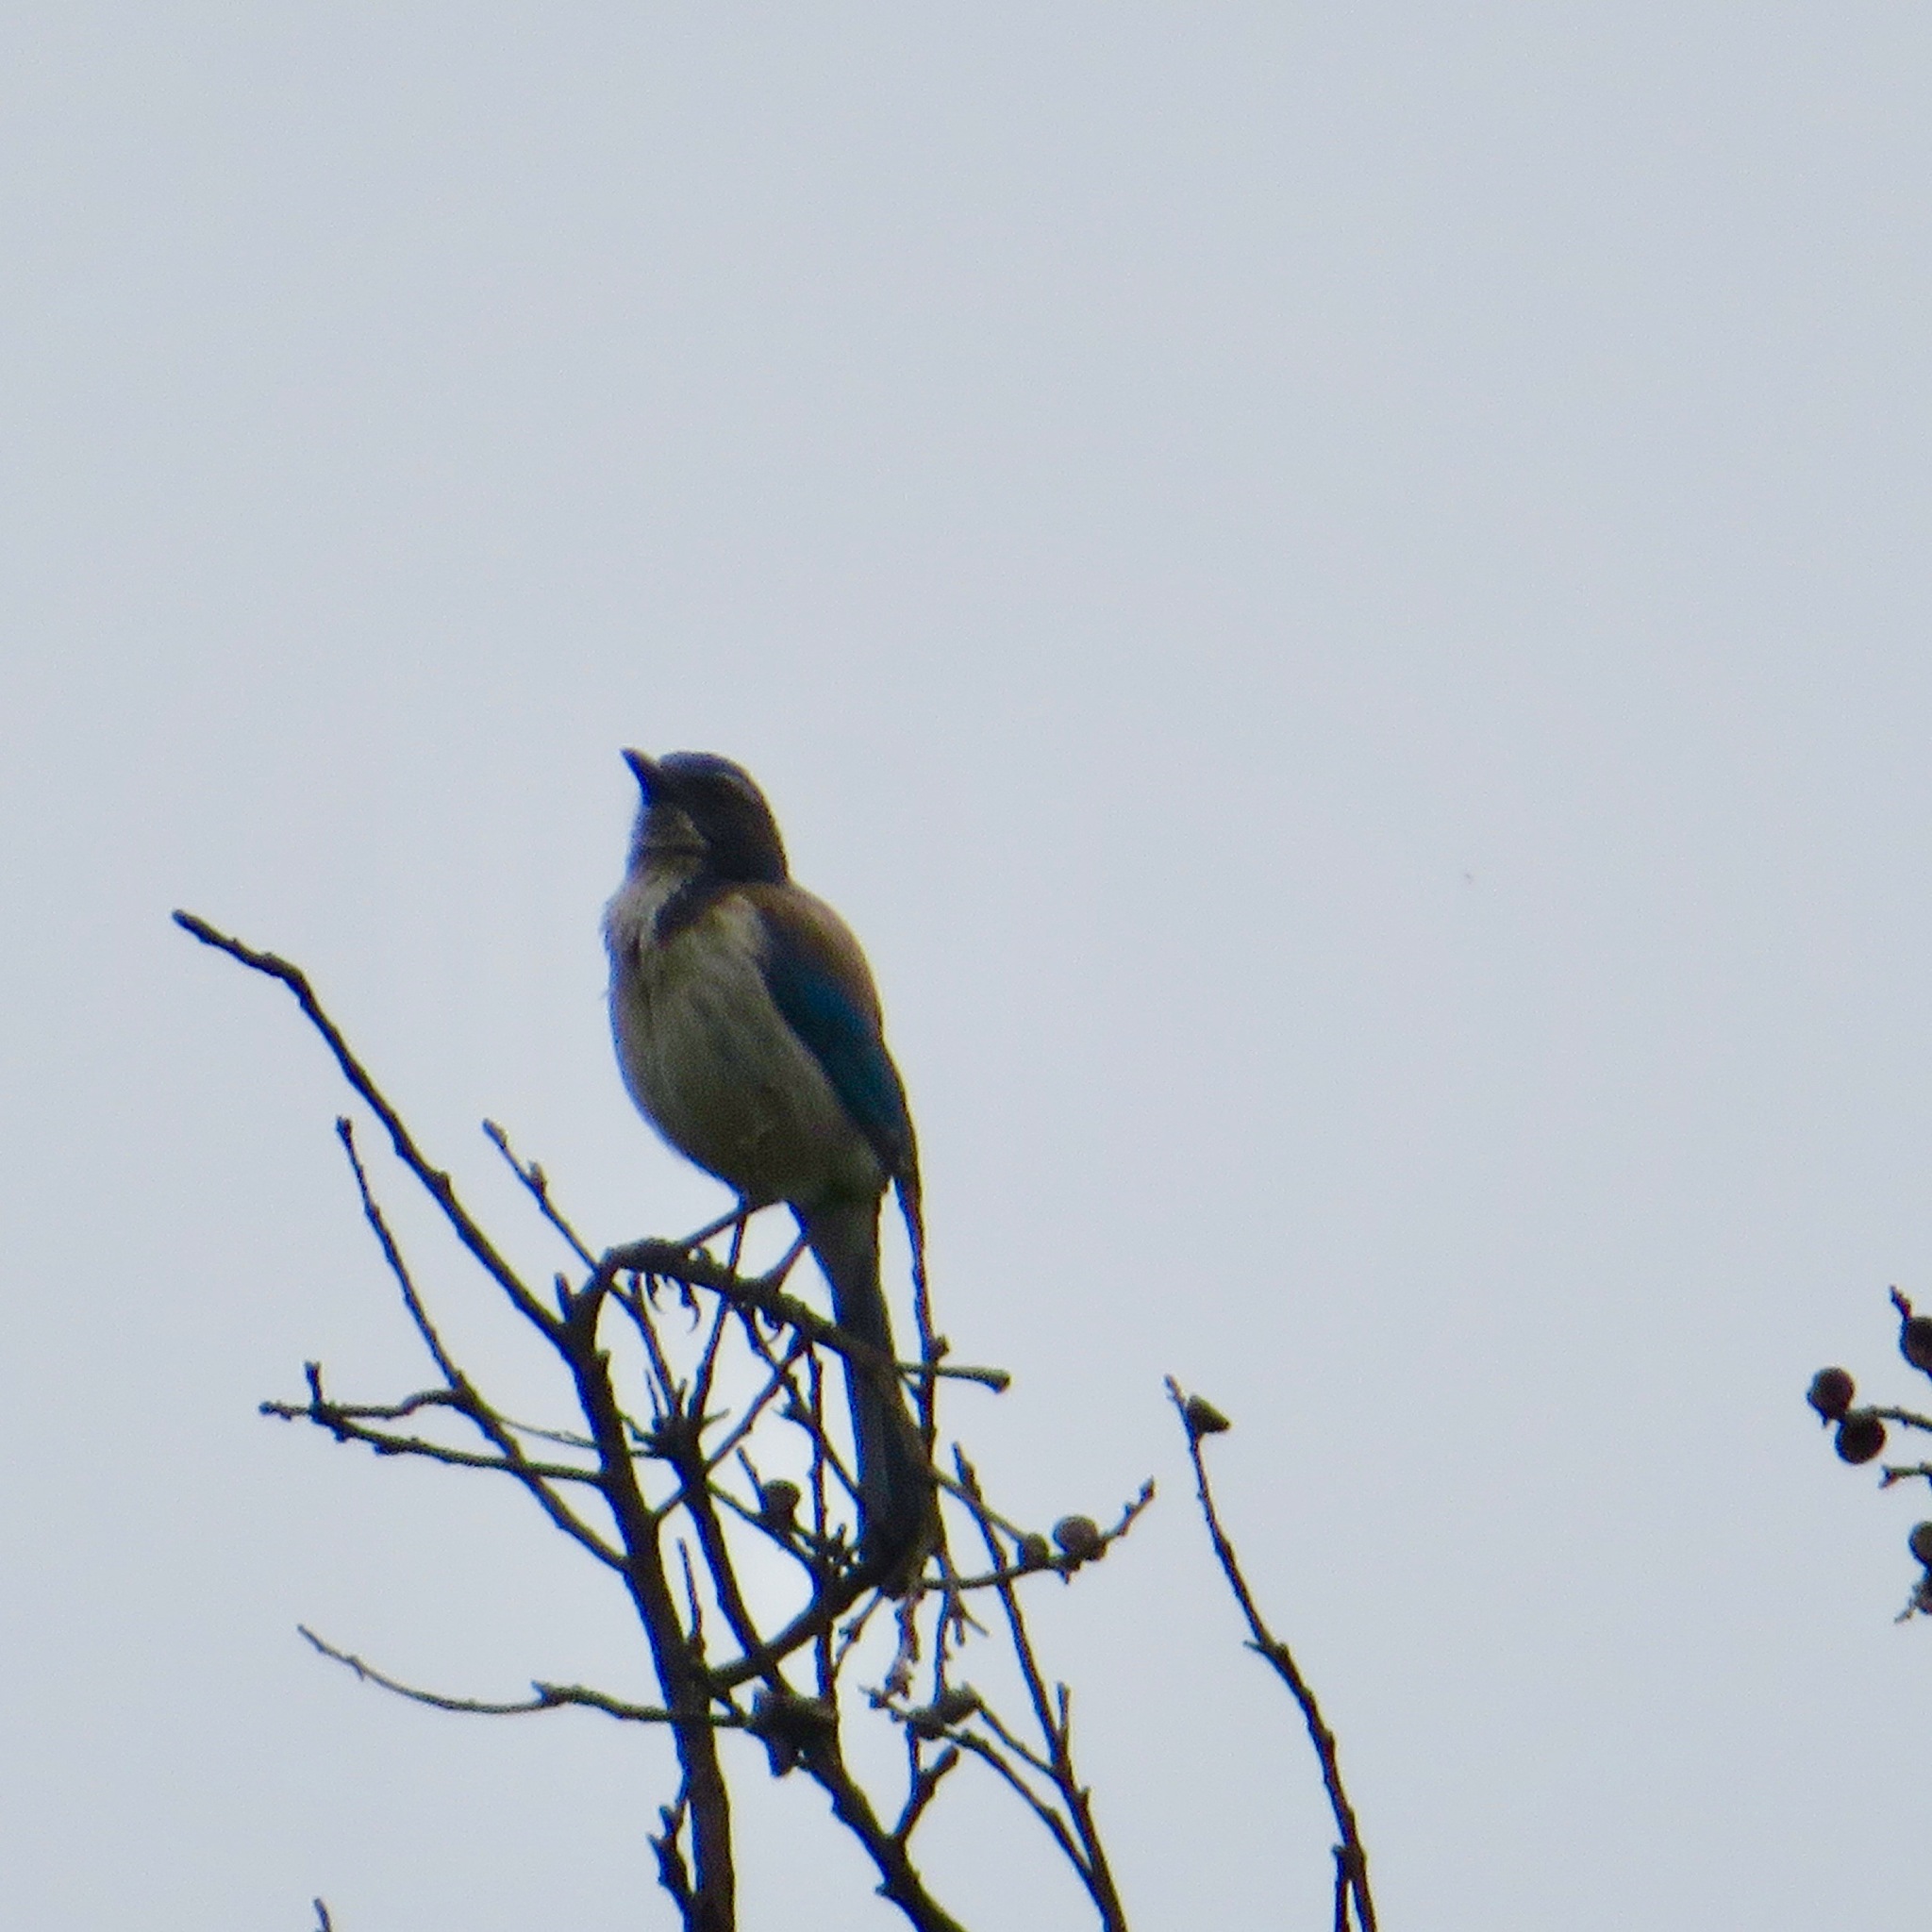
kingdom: Animalia
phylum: Chordata
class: Aves
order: Passeriformes
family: Corvidae
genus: Aphelocoma
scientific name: Aphelocoma californica
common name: California scrub-jay
